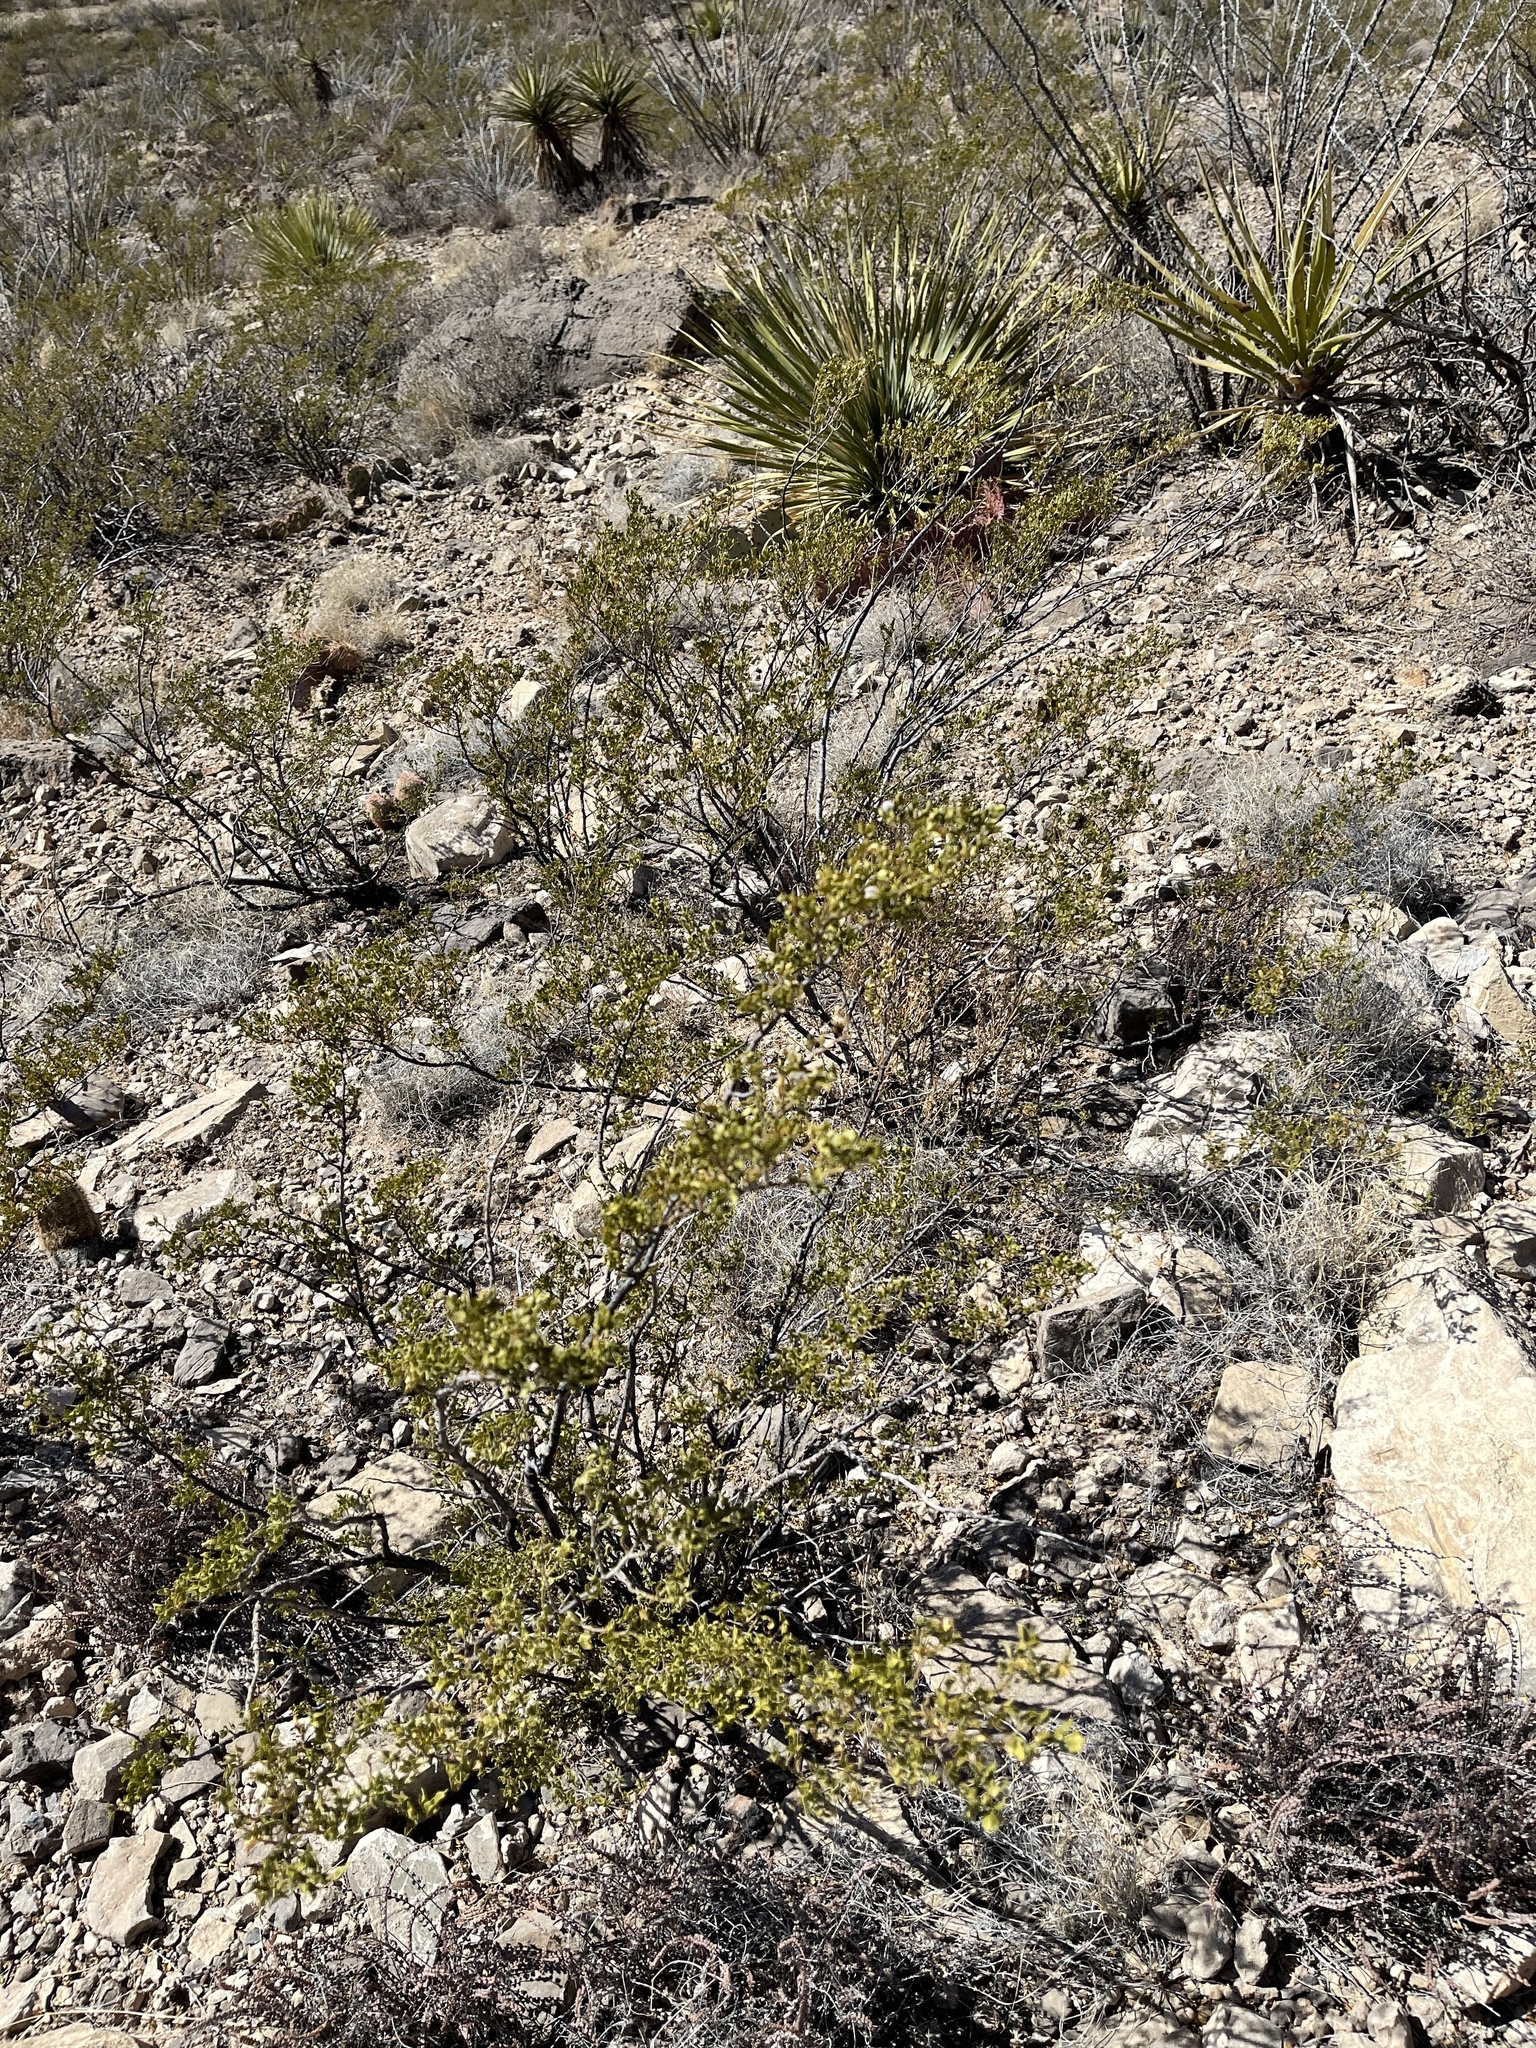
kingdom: Plantae
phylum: Tracheophyta
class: Magnoliopsida
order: Zygophyllales
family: Zygophyllaceae
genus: Larrea
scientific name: Larrea tridentata
